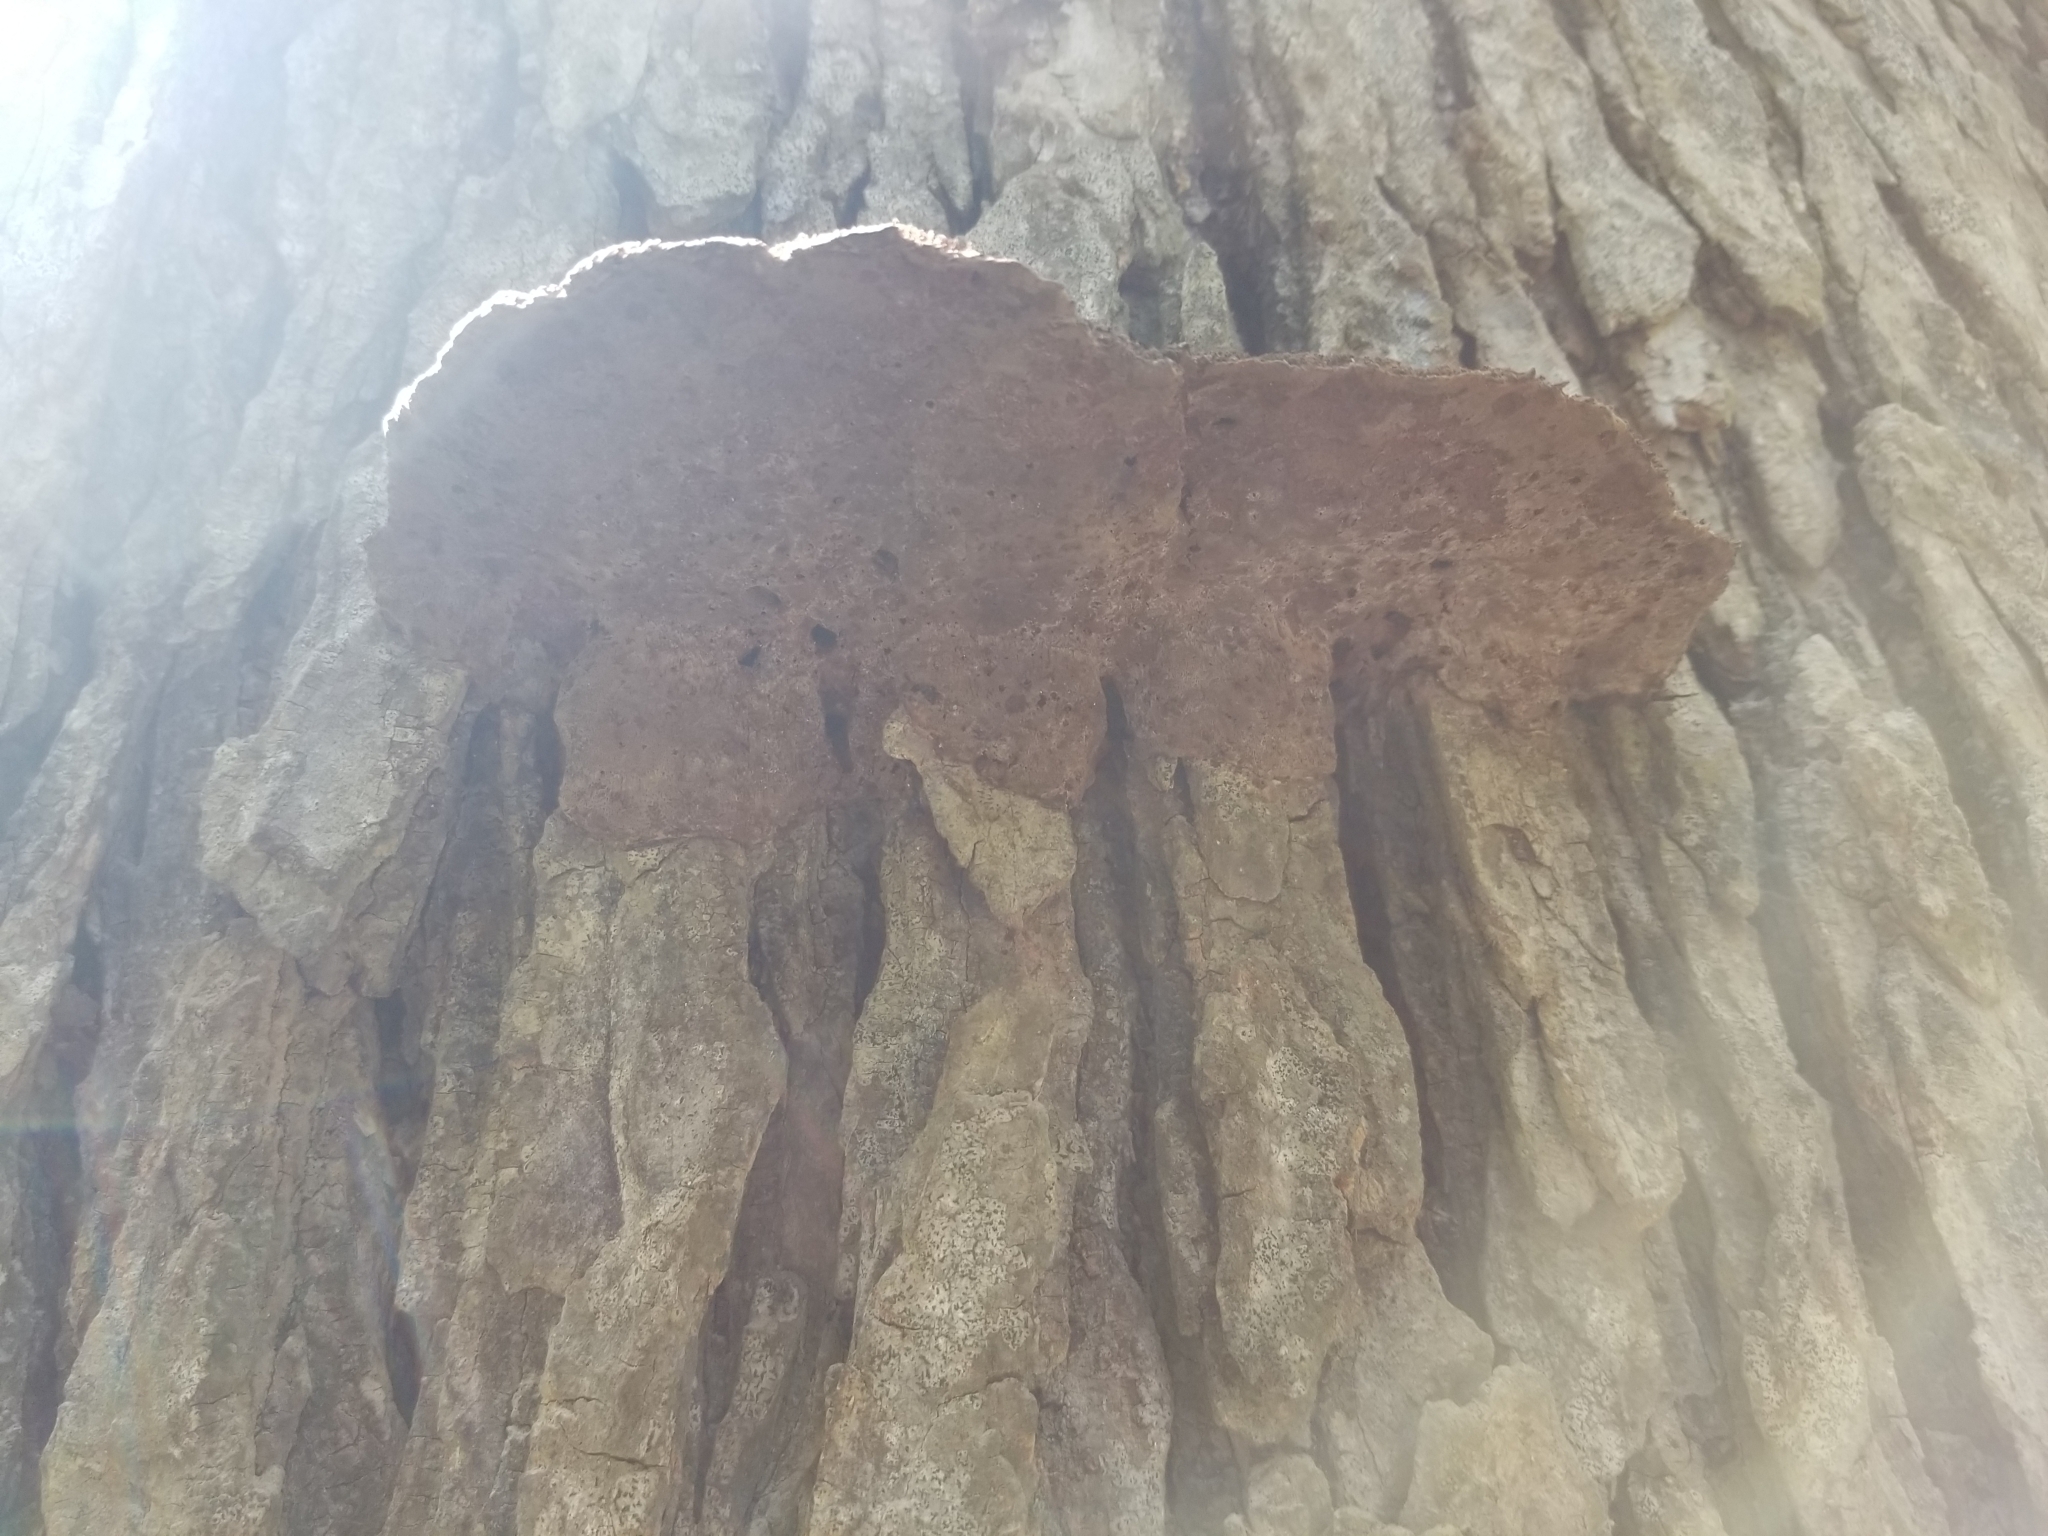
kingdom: Fungi
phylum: Basidiomycota
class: Agaricomycetes
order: Polyporales
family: Cerrenaceae
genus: Cerrena
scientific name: Cerrena hydnoides
